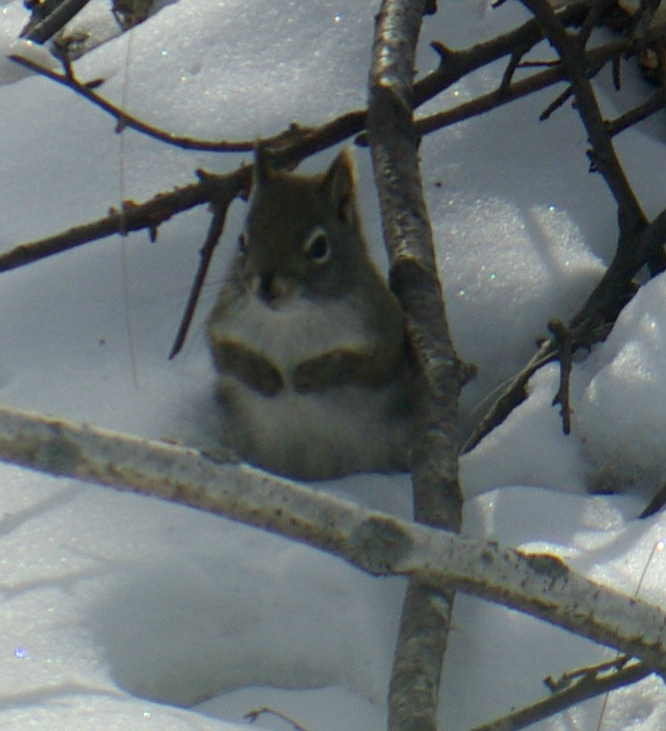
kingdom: Animalia
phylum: Chordata
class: Mammalia
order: Rodentia
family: Sciuridae
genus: Tamiasciurus
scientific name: Tamiasciurus hudsonicus
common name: Red squirrel
